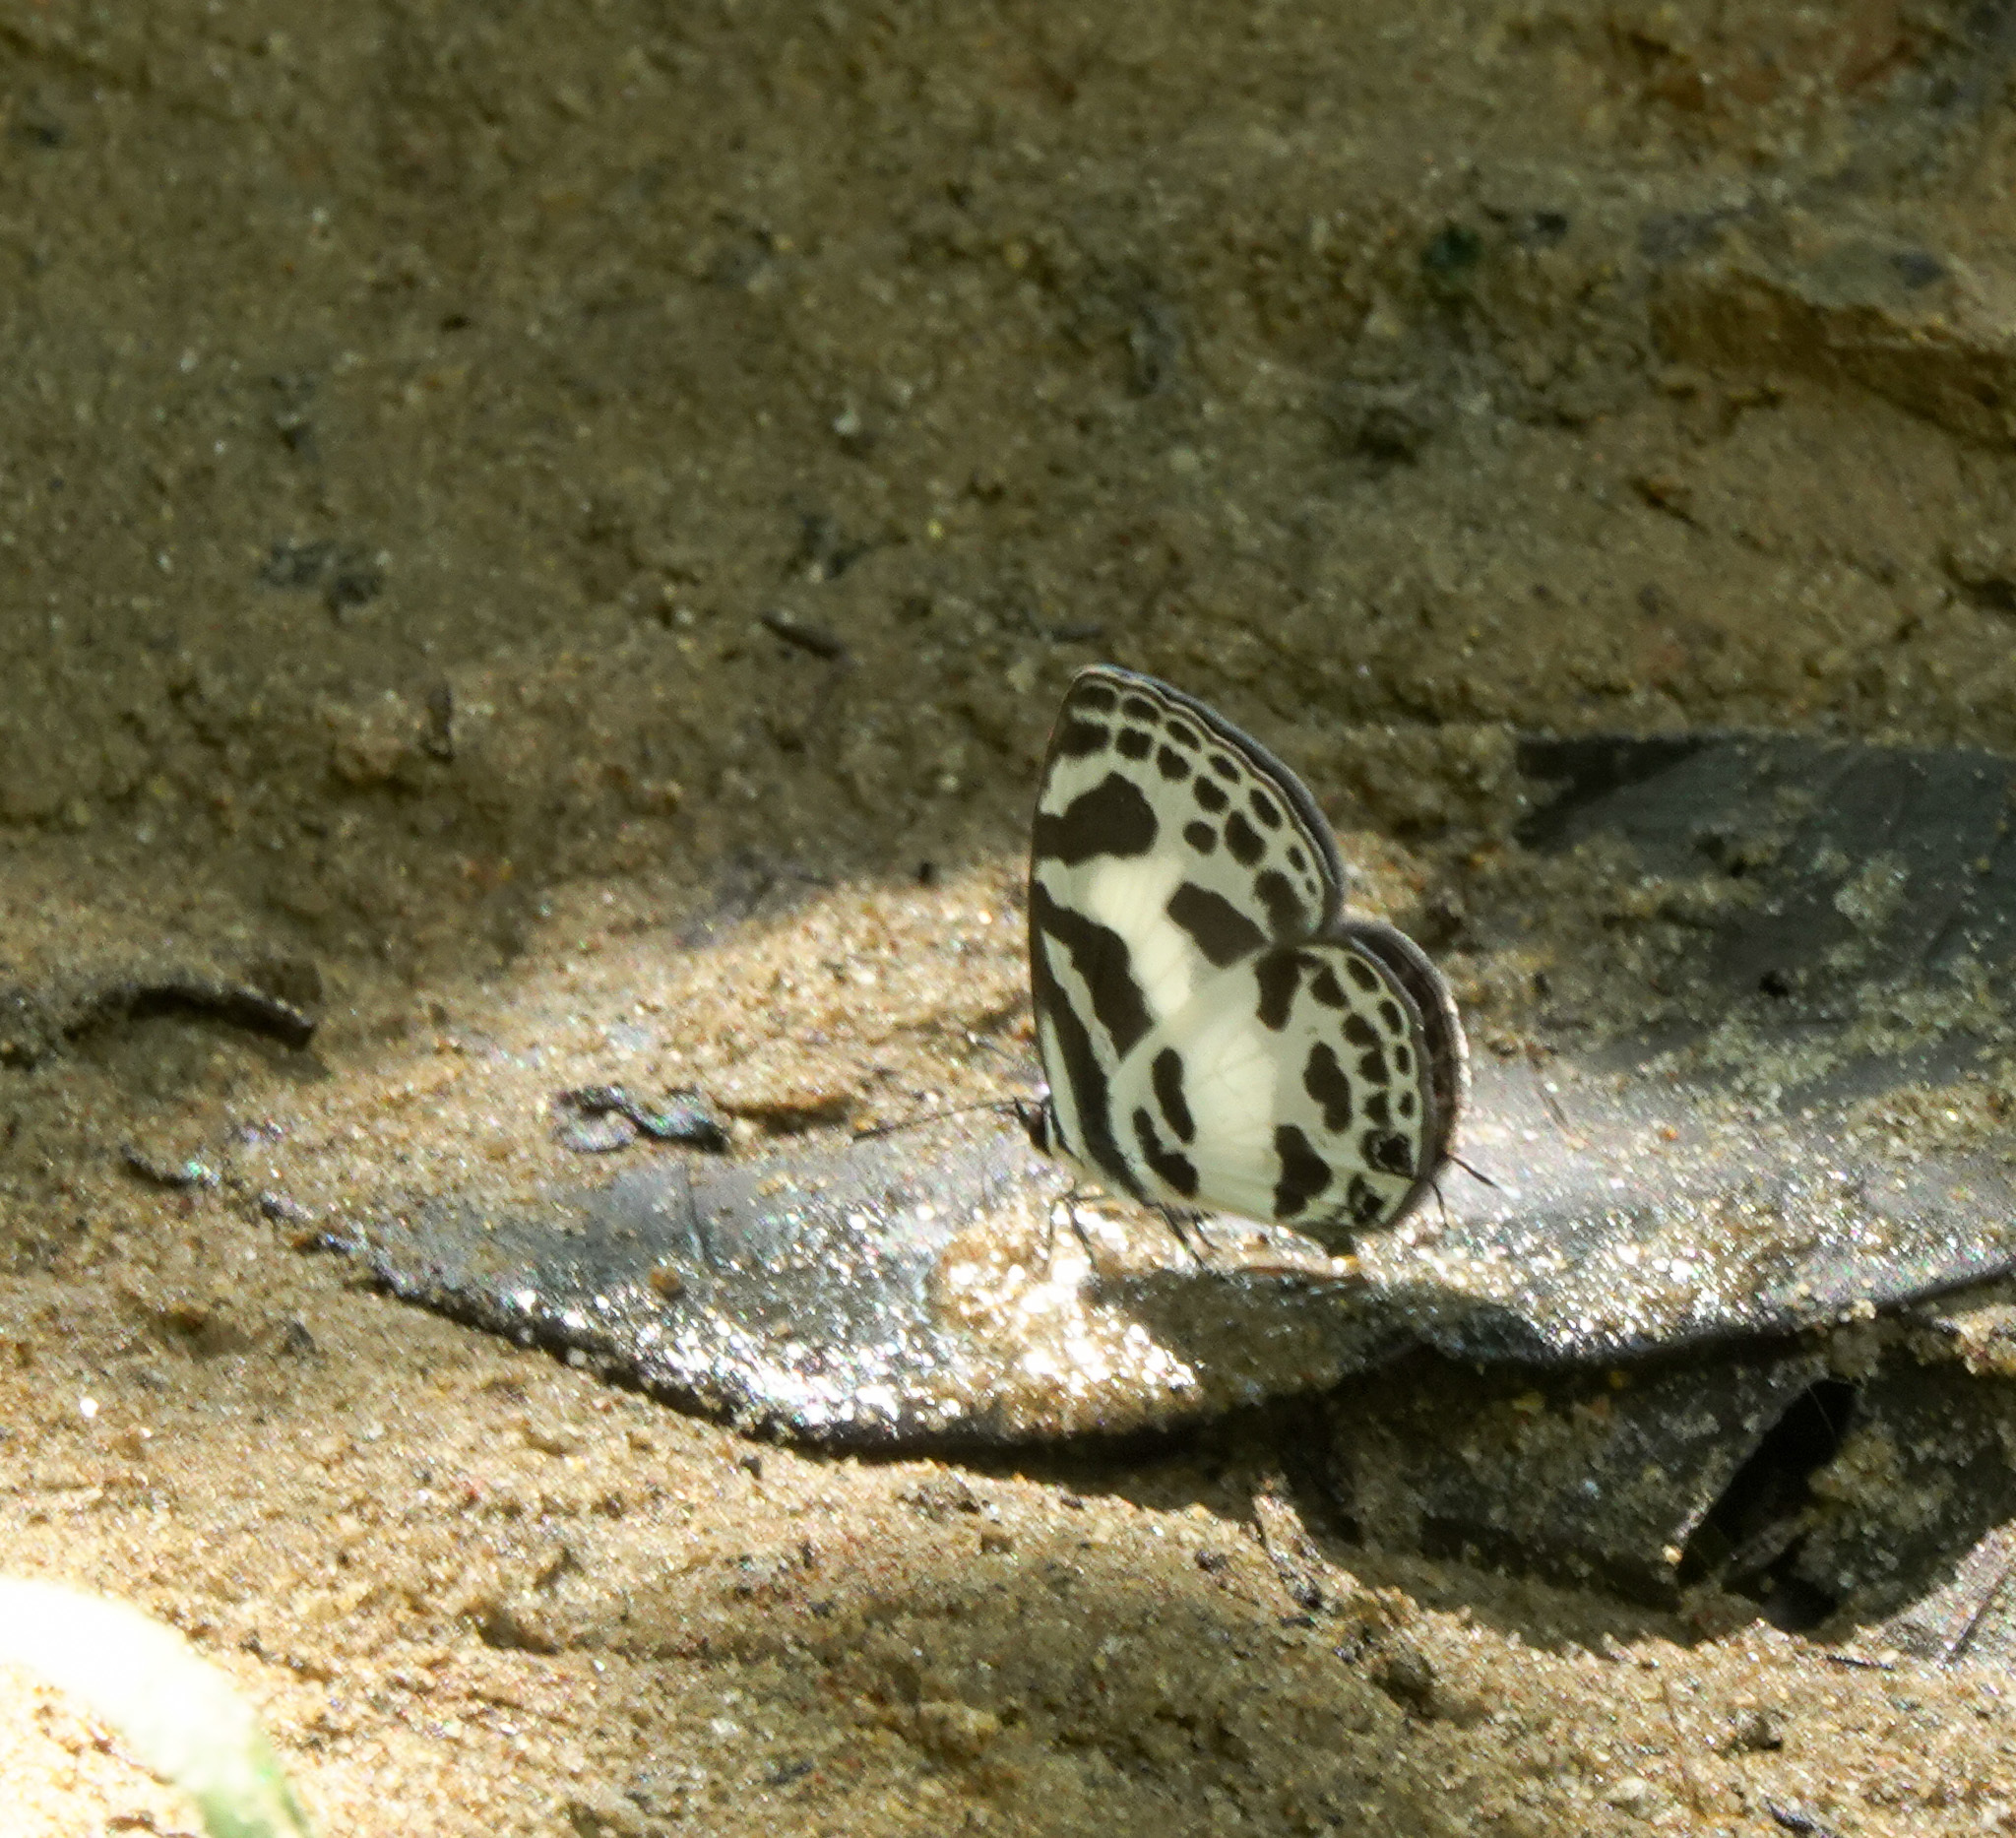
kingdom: Animalia
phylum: Arthropoda
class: Insecta
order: Lepidoptera
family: Lycaenidae
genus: Discolampa
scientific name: Discolampa ethion
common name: Banded blue pierrot
